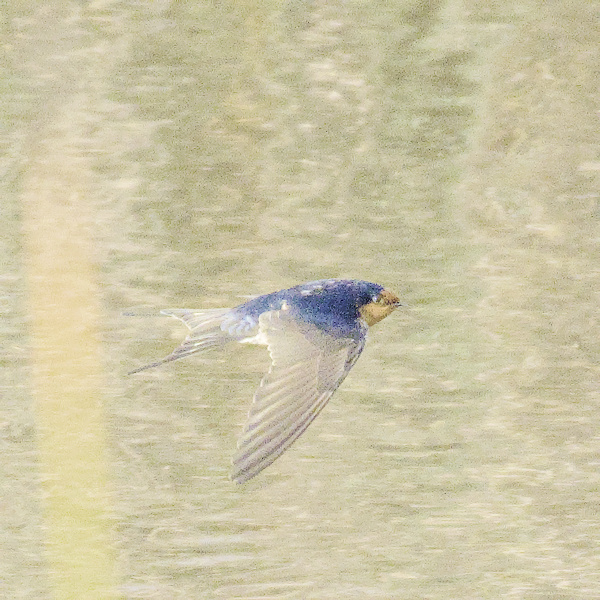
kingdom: Animalia
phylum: Chordata
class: Aves
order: Passeriformes
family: Hirundinidae
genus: Hirundo
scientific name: Hirundo neoxena
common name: Welcome swallow
